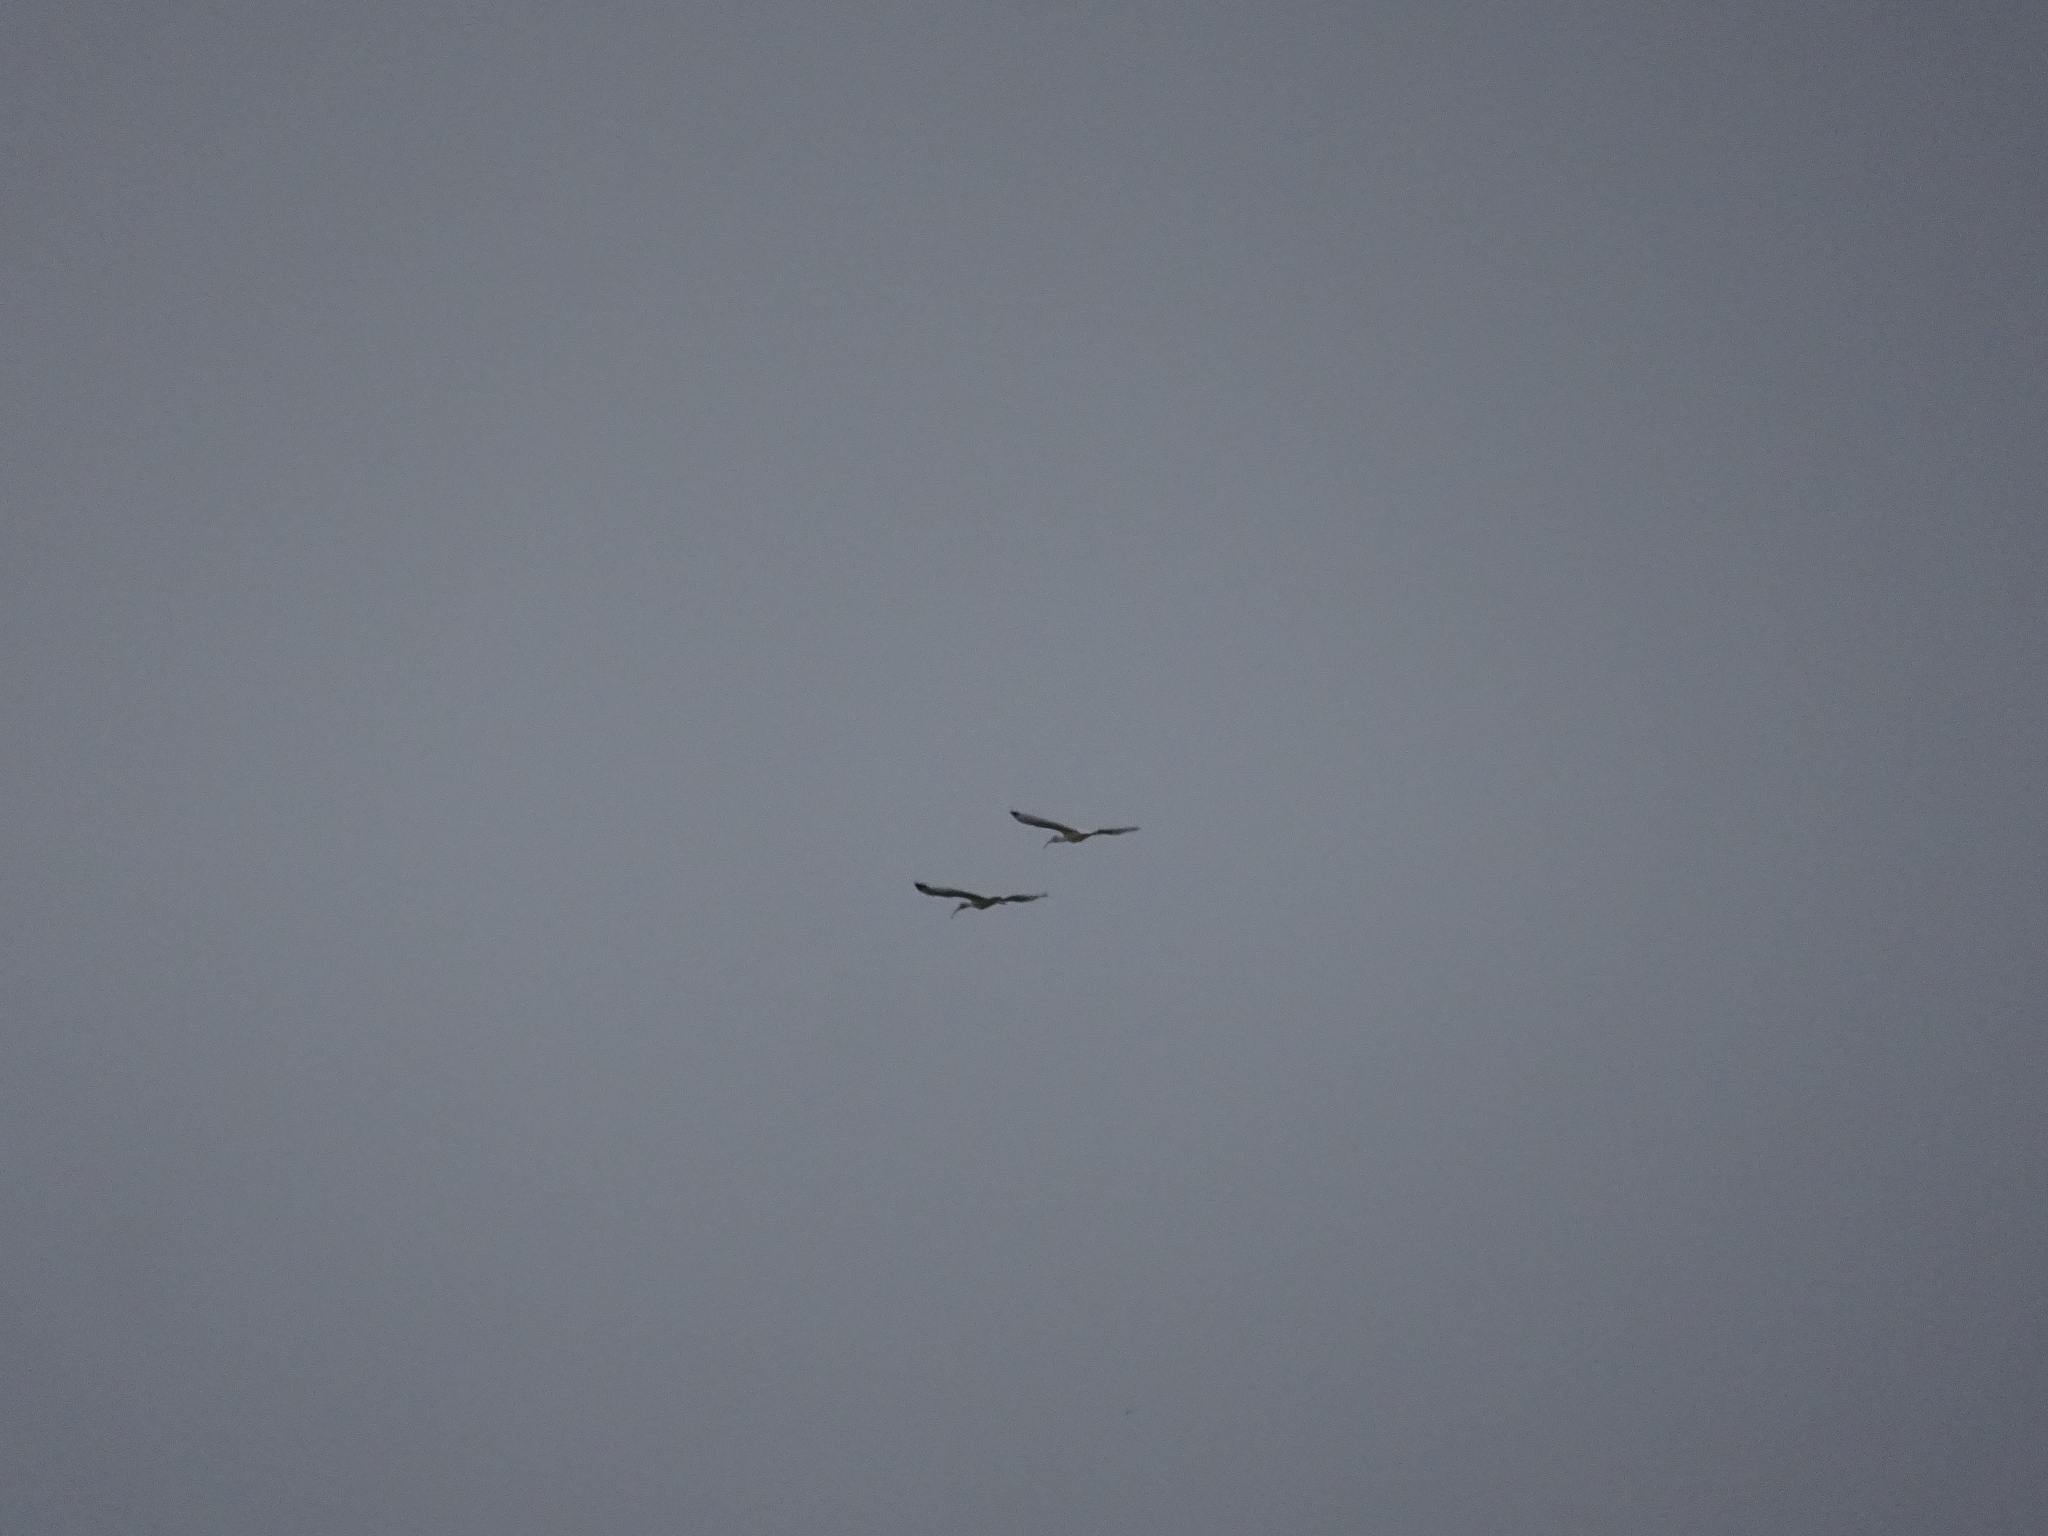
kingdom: Animalia
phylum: Chordata
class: Aves
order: Pelecaniformes
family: Threskiornithidae
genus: Eudocimus
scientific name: Eudocimus albus
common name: White ibis
